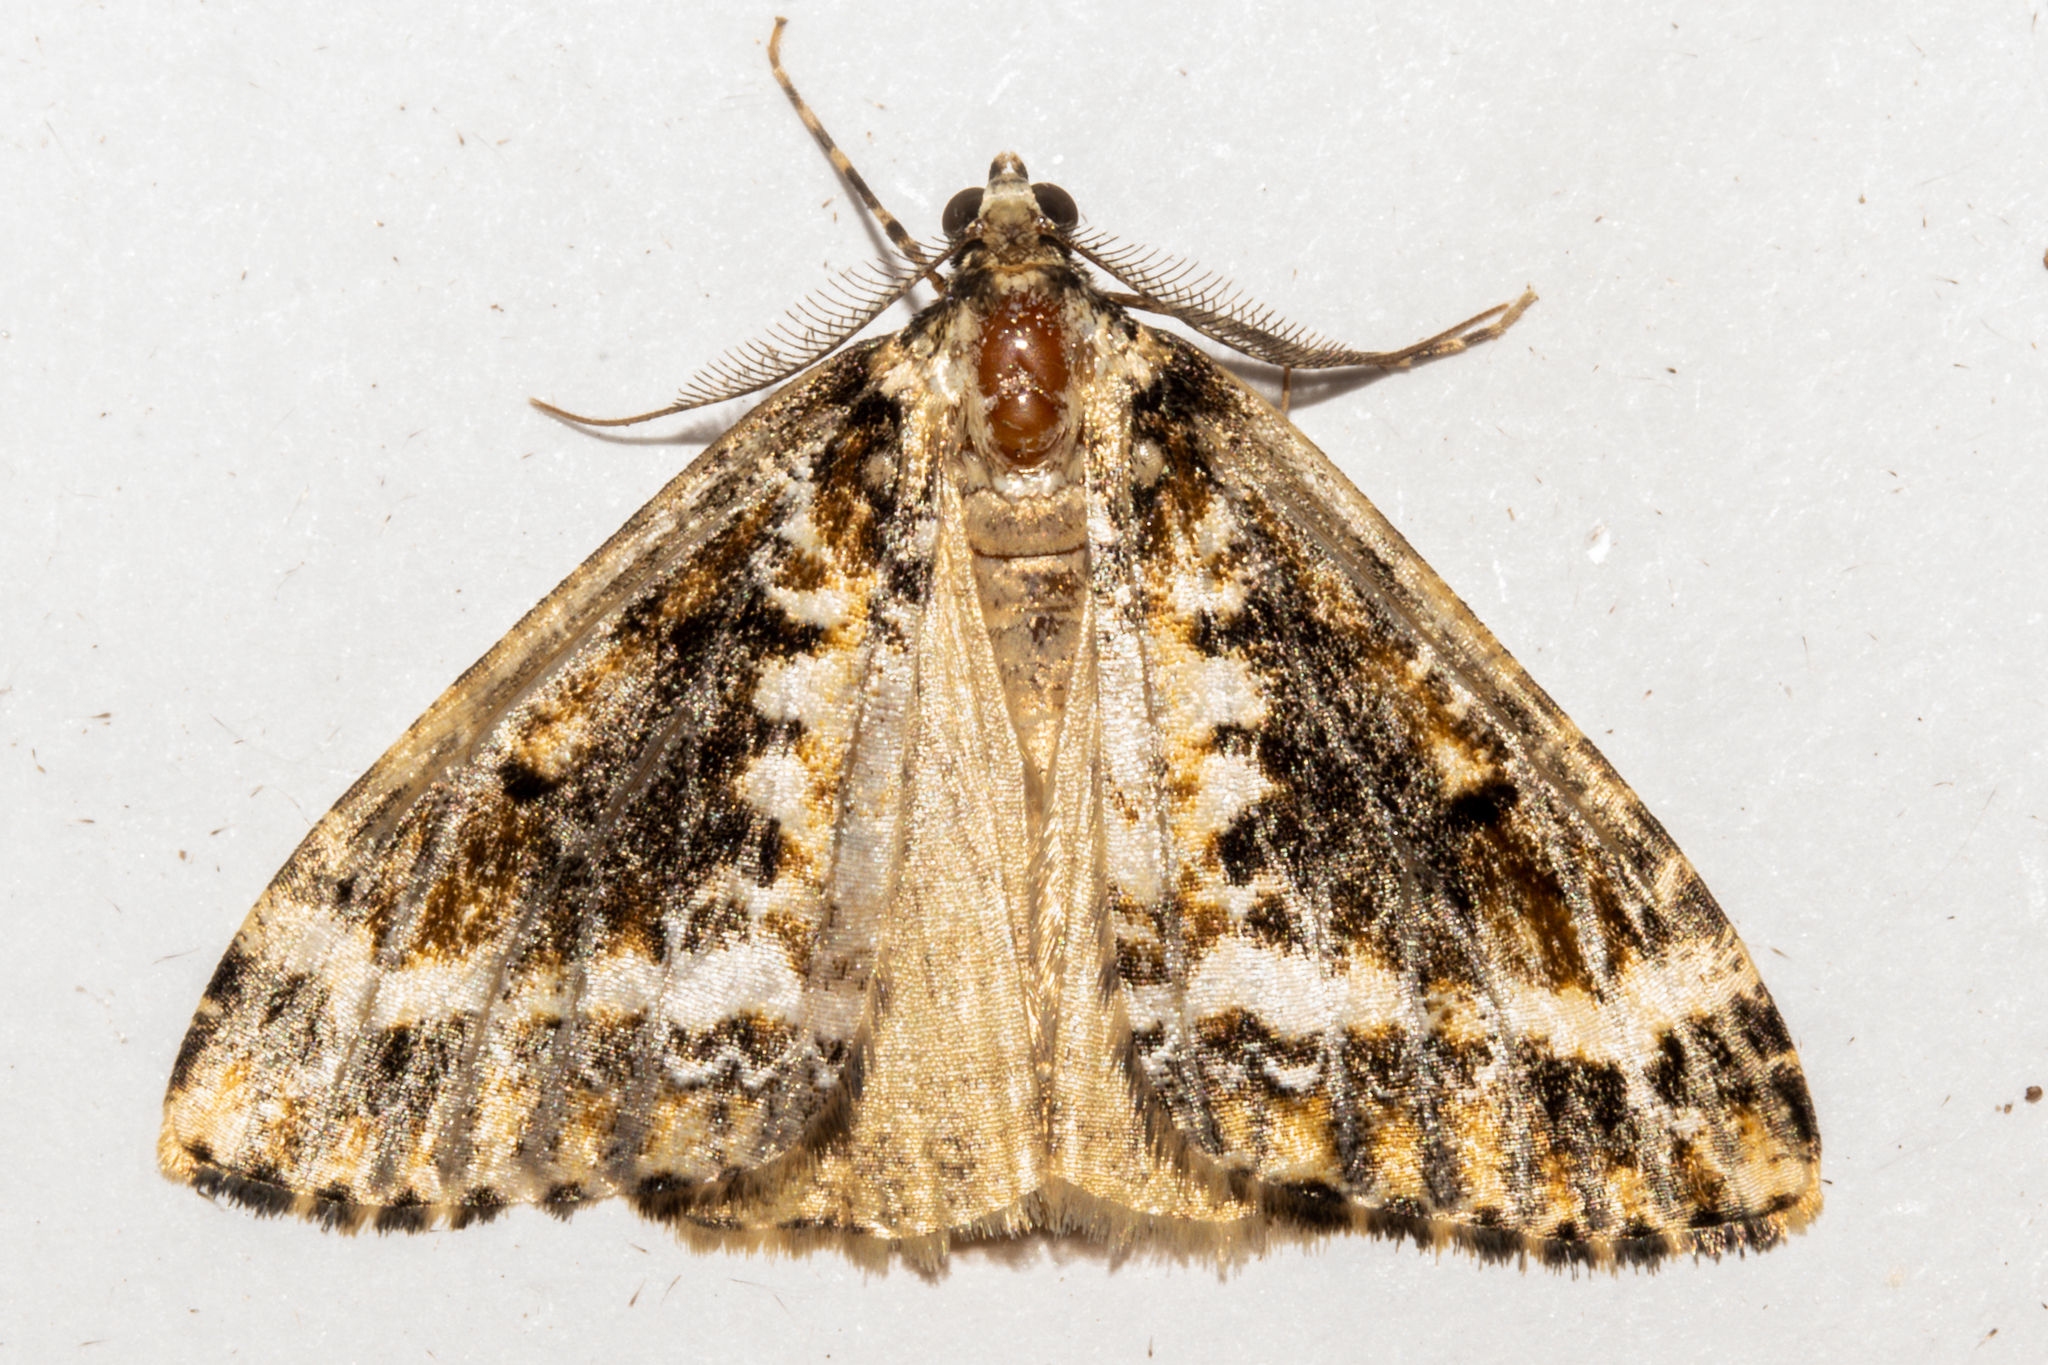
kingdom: Animalia
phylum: Arthropoda
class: Insecta
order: Lepidoptera
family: Geometridae
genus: Pseudocoremia
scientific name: Pseudocoremia leucelaea
